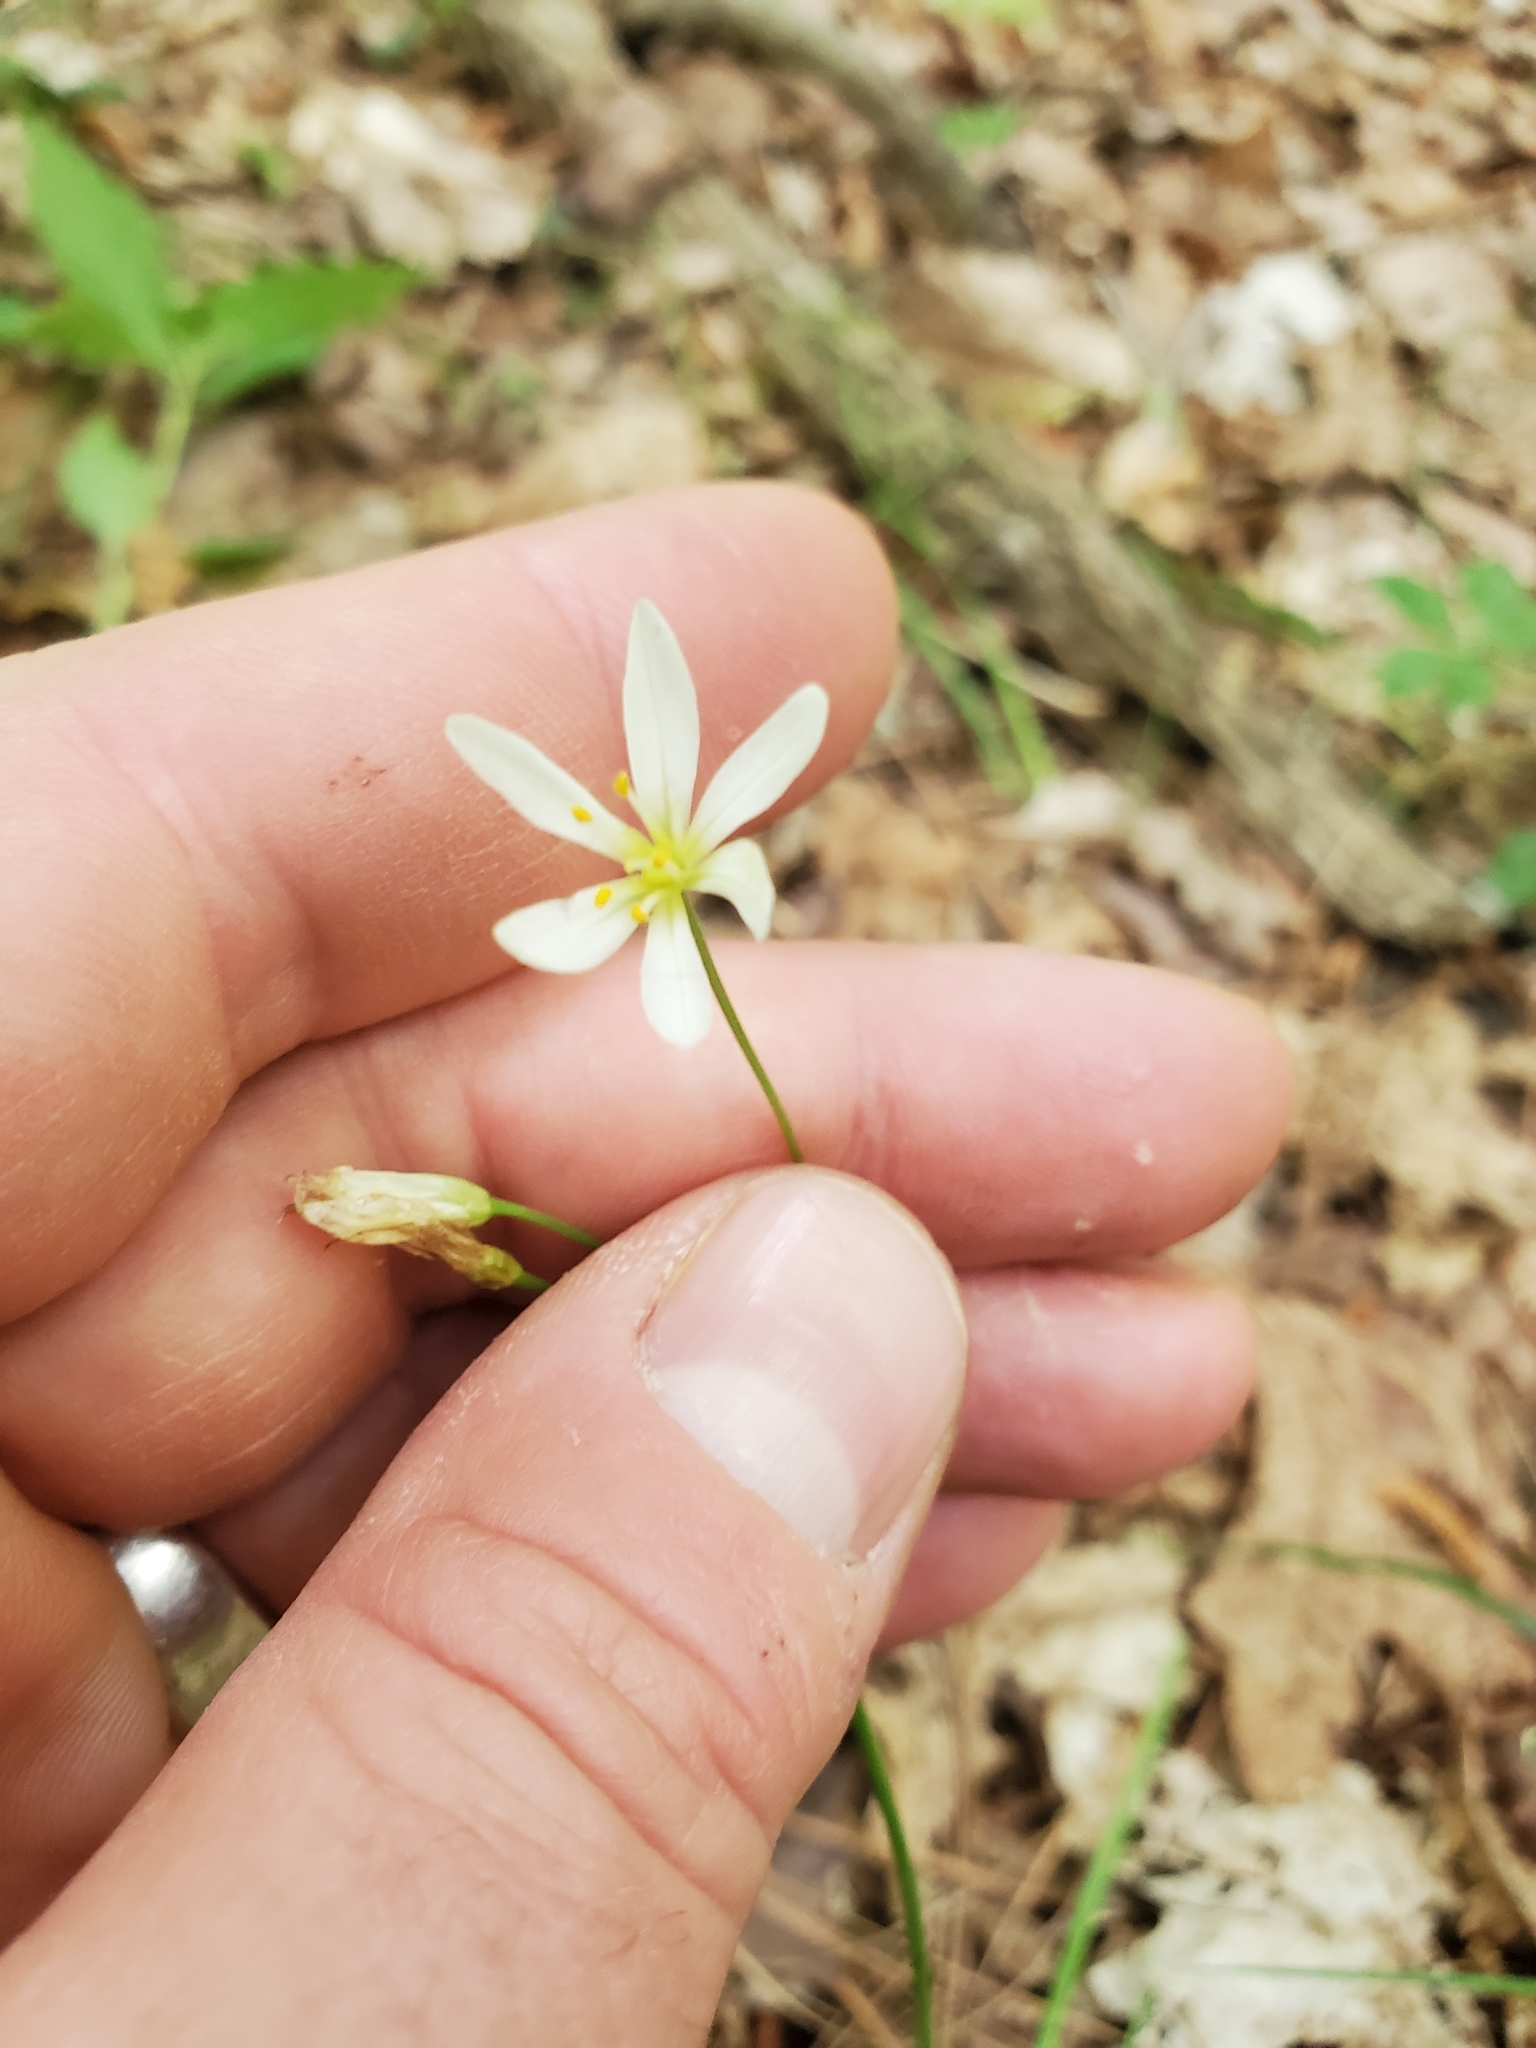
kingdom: Plantae
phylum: Tracheophyta
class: Liliopsida
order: Asparagales
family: Amaryllidaceae
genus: Nothoscordum
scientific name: Nothoscordum bivalve
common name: Crow-poison
